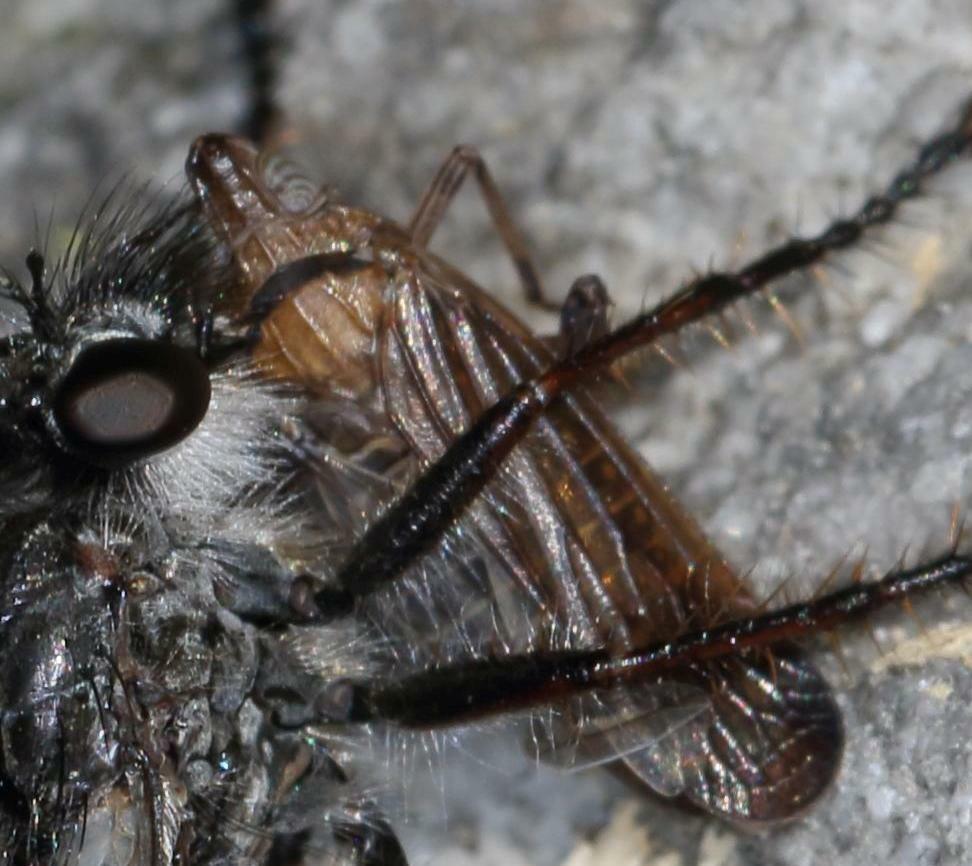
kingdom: Animalia
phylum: Arthropoda
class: Insecta
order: Hemiptera
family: Dictyopharidae
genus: Aethiocera
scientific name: Aethiocera adusta
